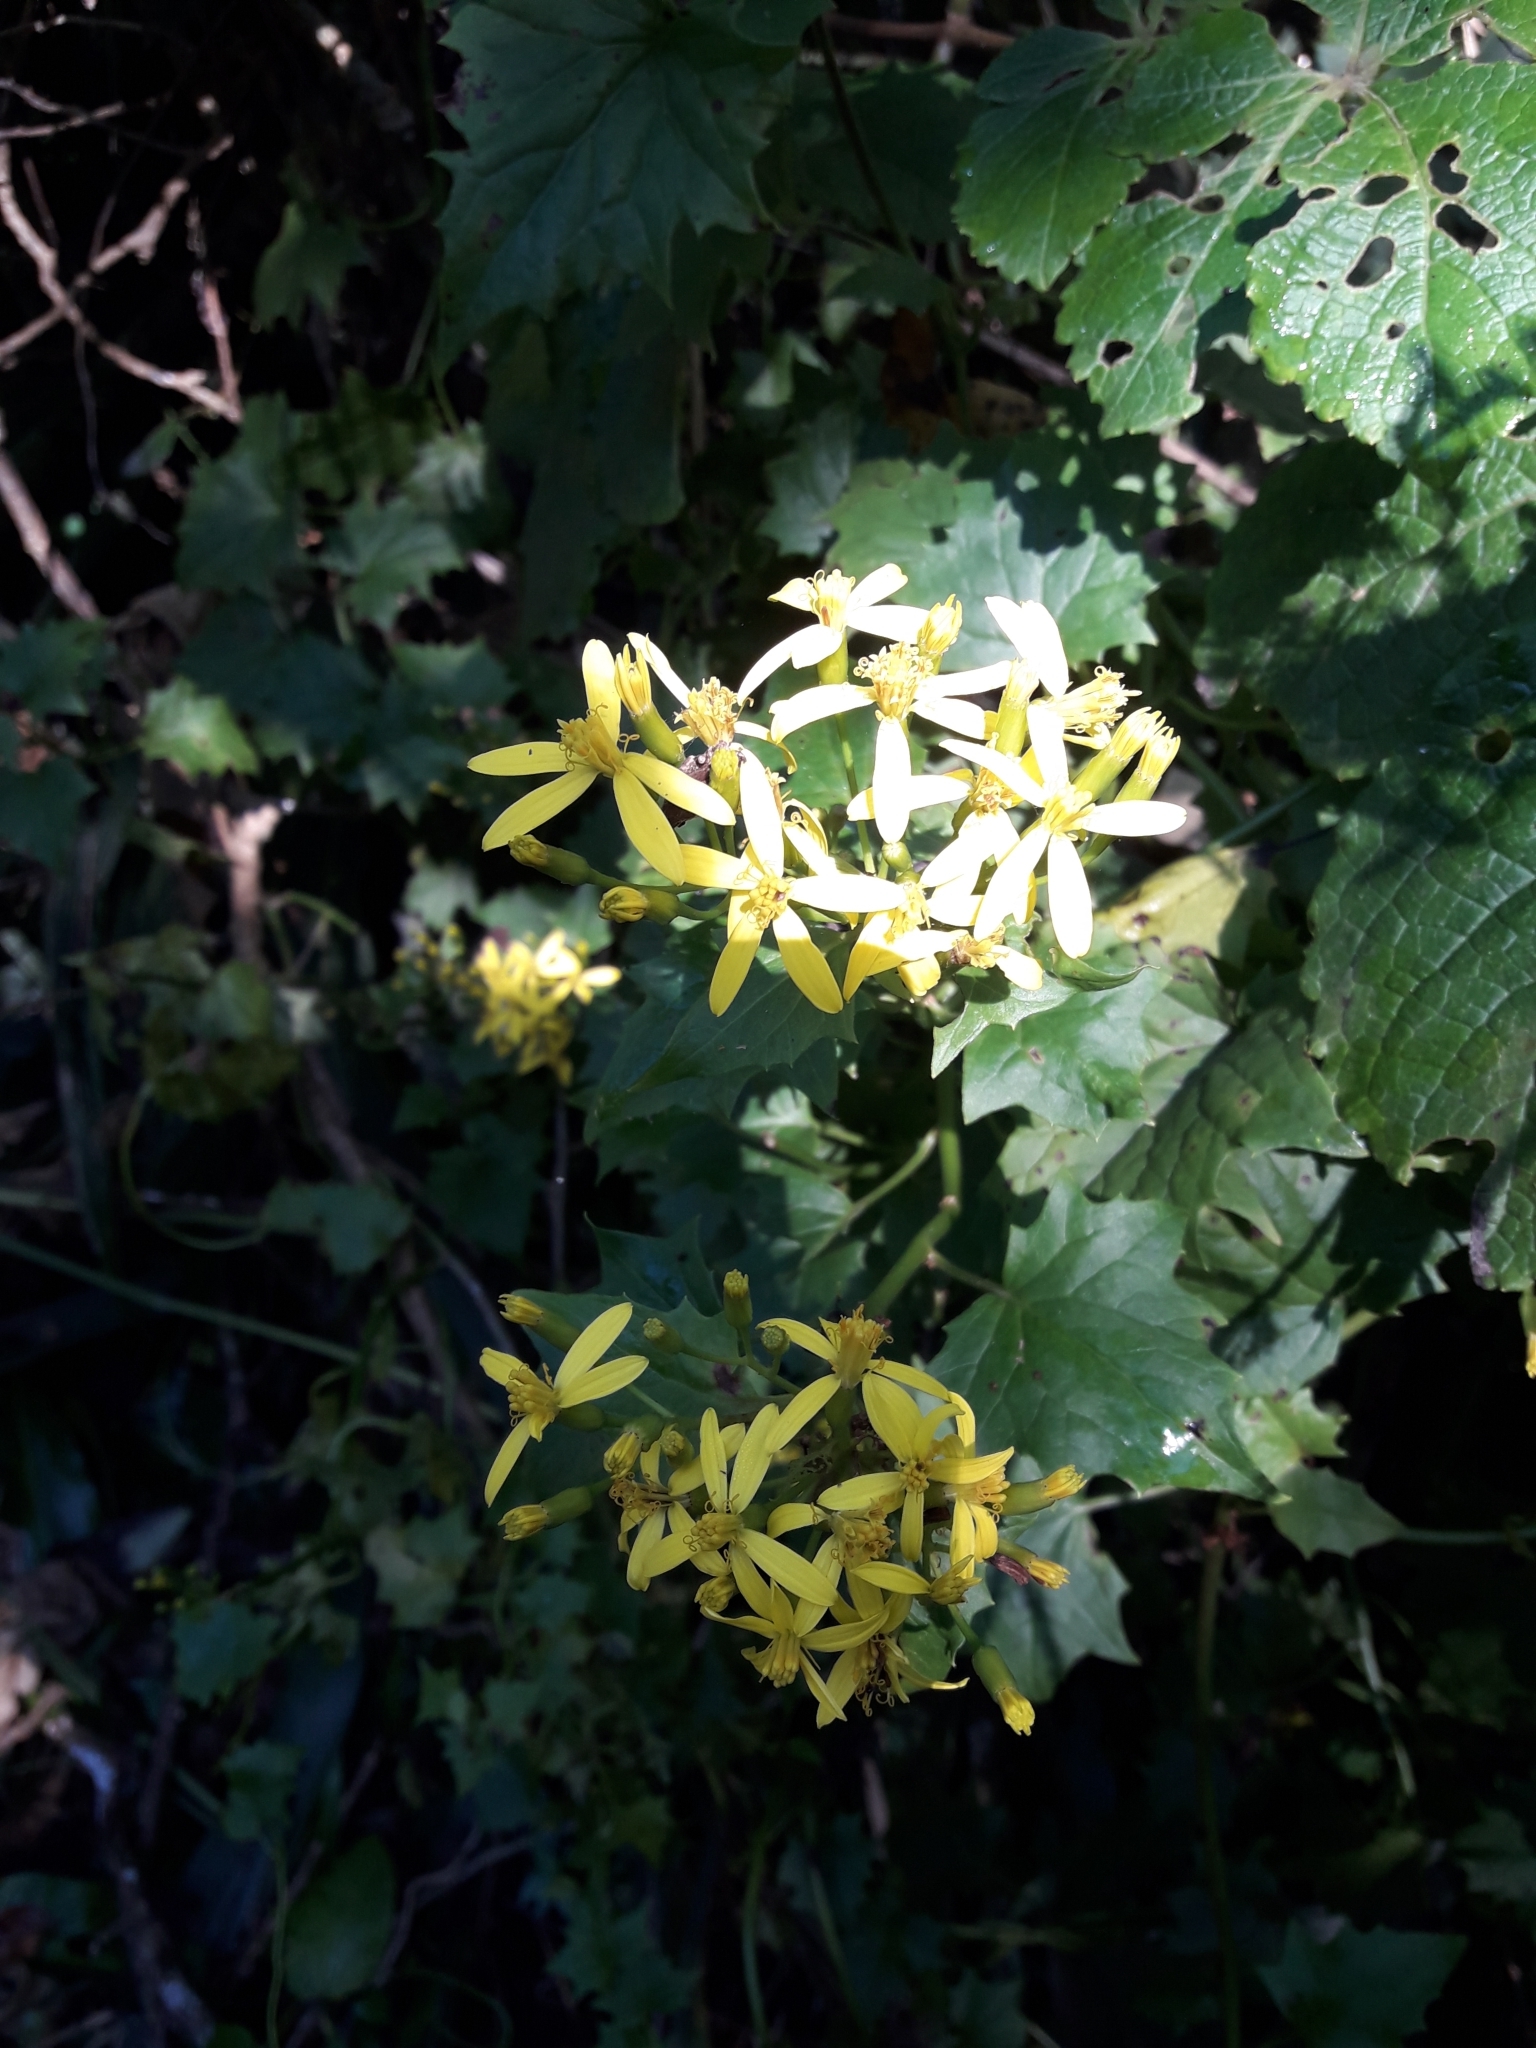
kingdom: Plantae
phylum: Tracheophyta
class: Magnoliopsida
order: Asterales
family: Asteraceae
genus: Senecio
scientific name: Senecio tamoides
